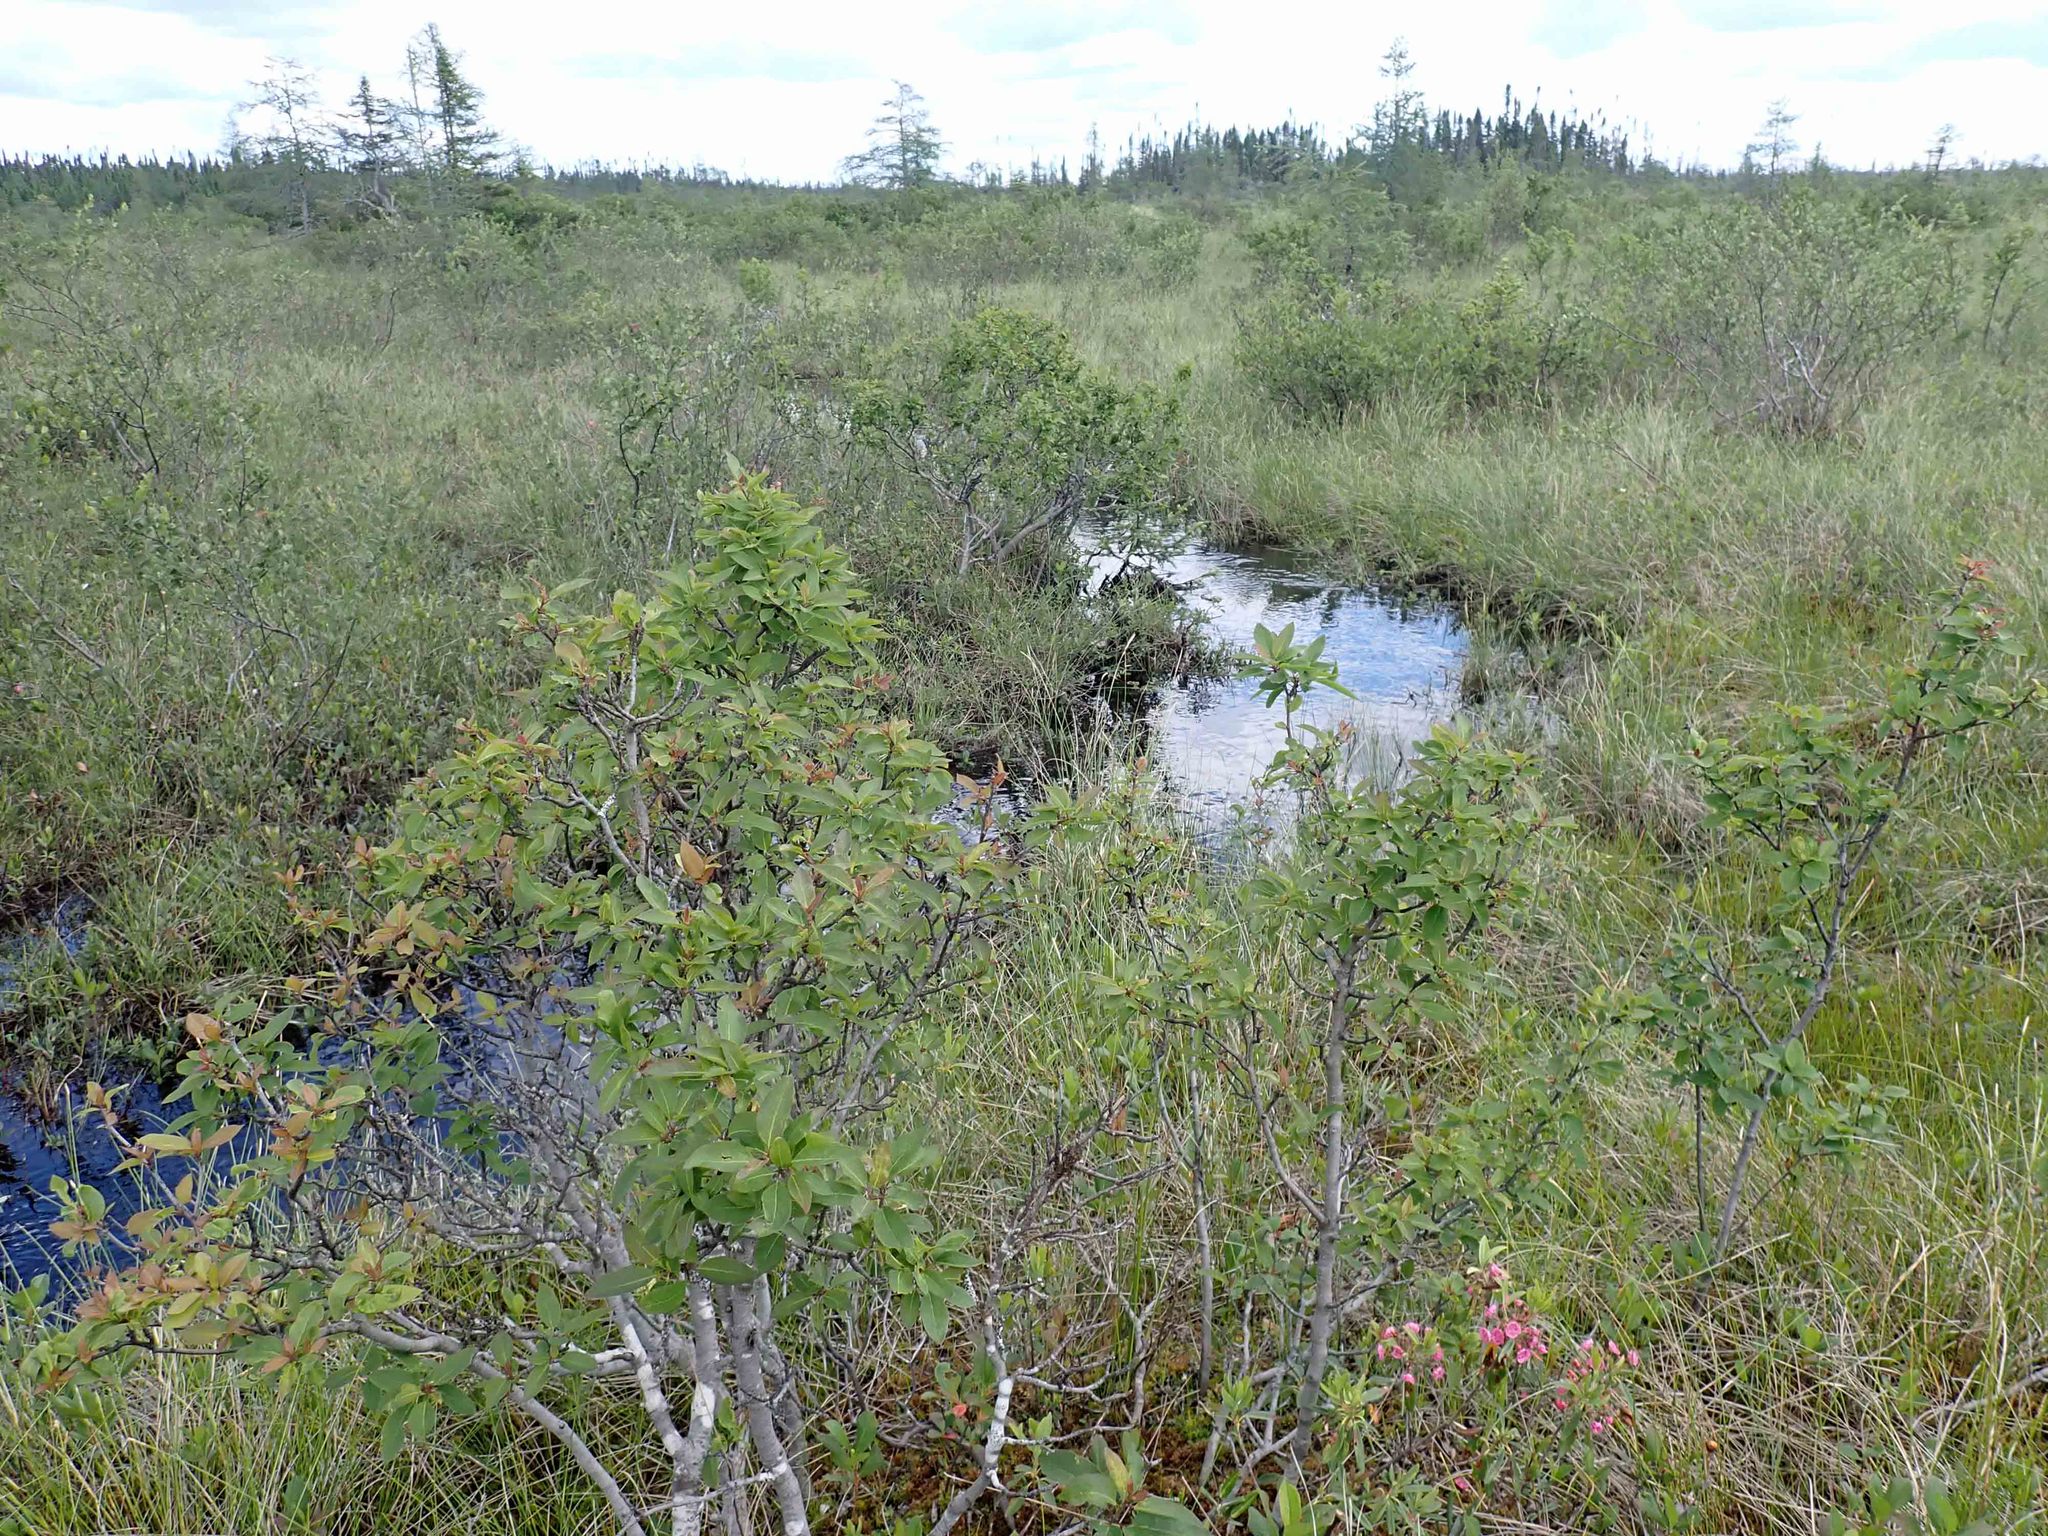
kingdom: Plantae
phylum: Tracheophyta
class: Magnoliopsida
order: Aquifoliales
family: Aquifoliaceae
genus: Ilex
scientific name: Ilex mucronata
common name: Catberry
